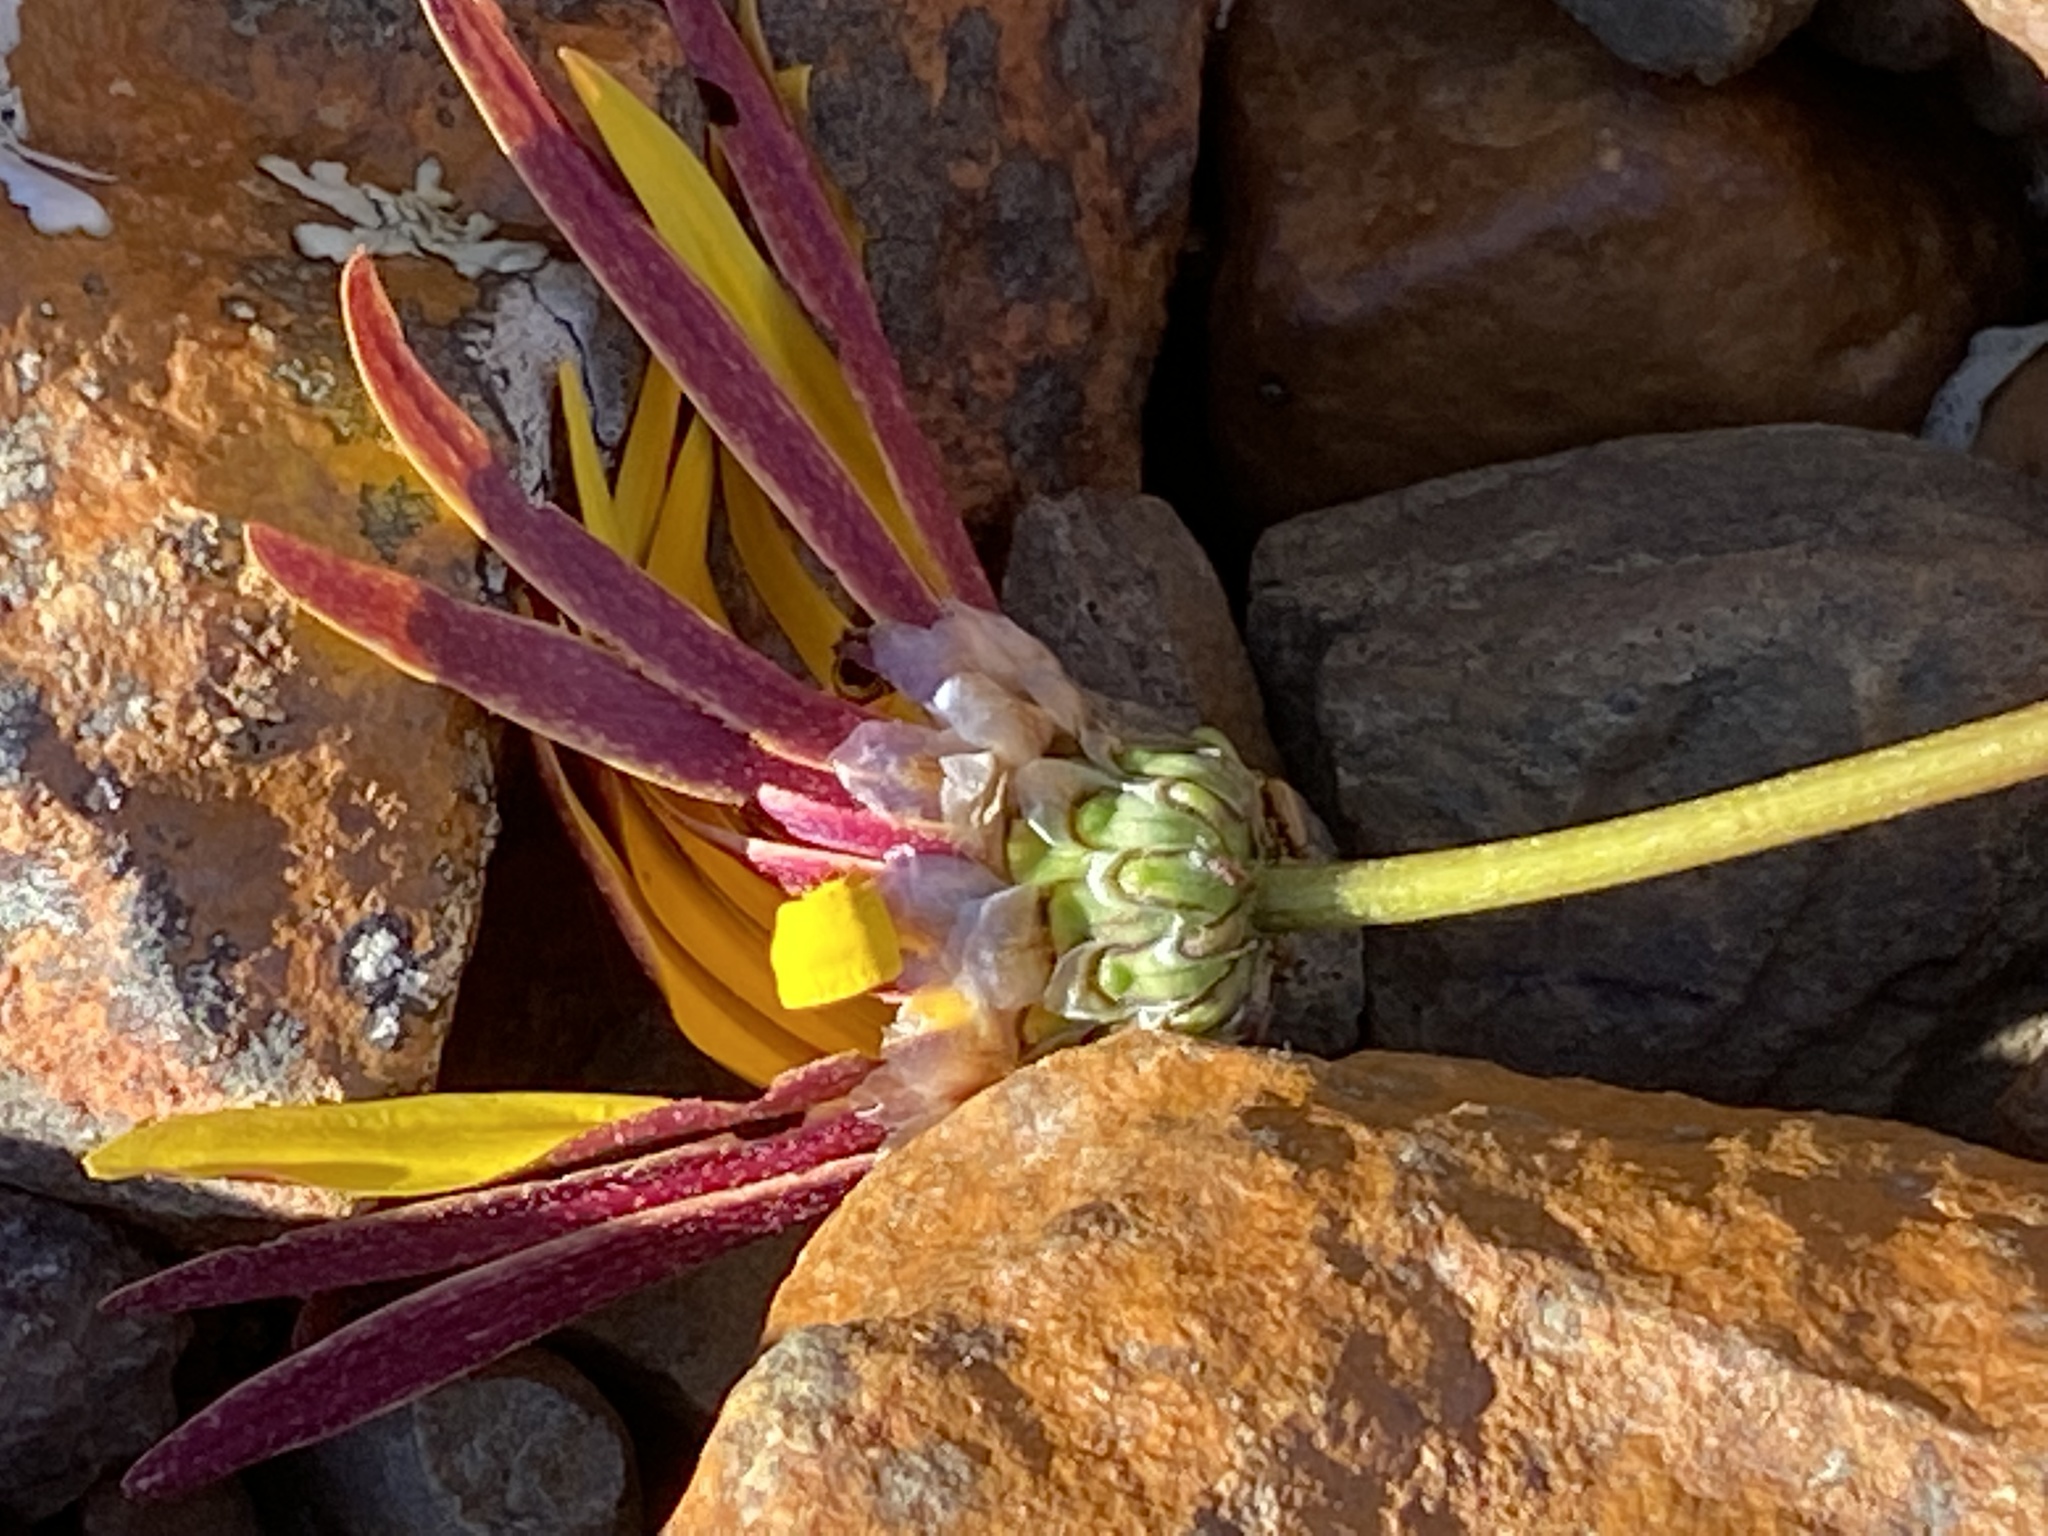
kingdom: Plantae
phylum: Tracheophyta
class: Magnoliopsida
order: Asterales
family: Asteraceae
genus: Ursinia
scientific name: Ursinia discolor
